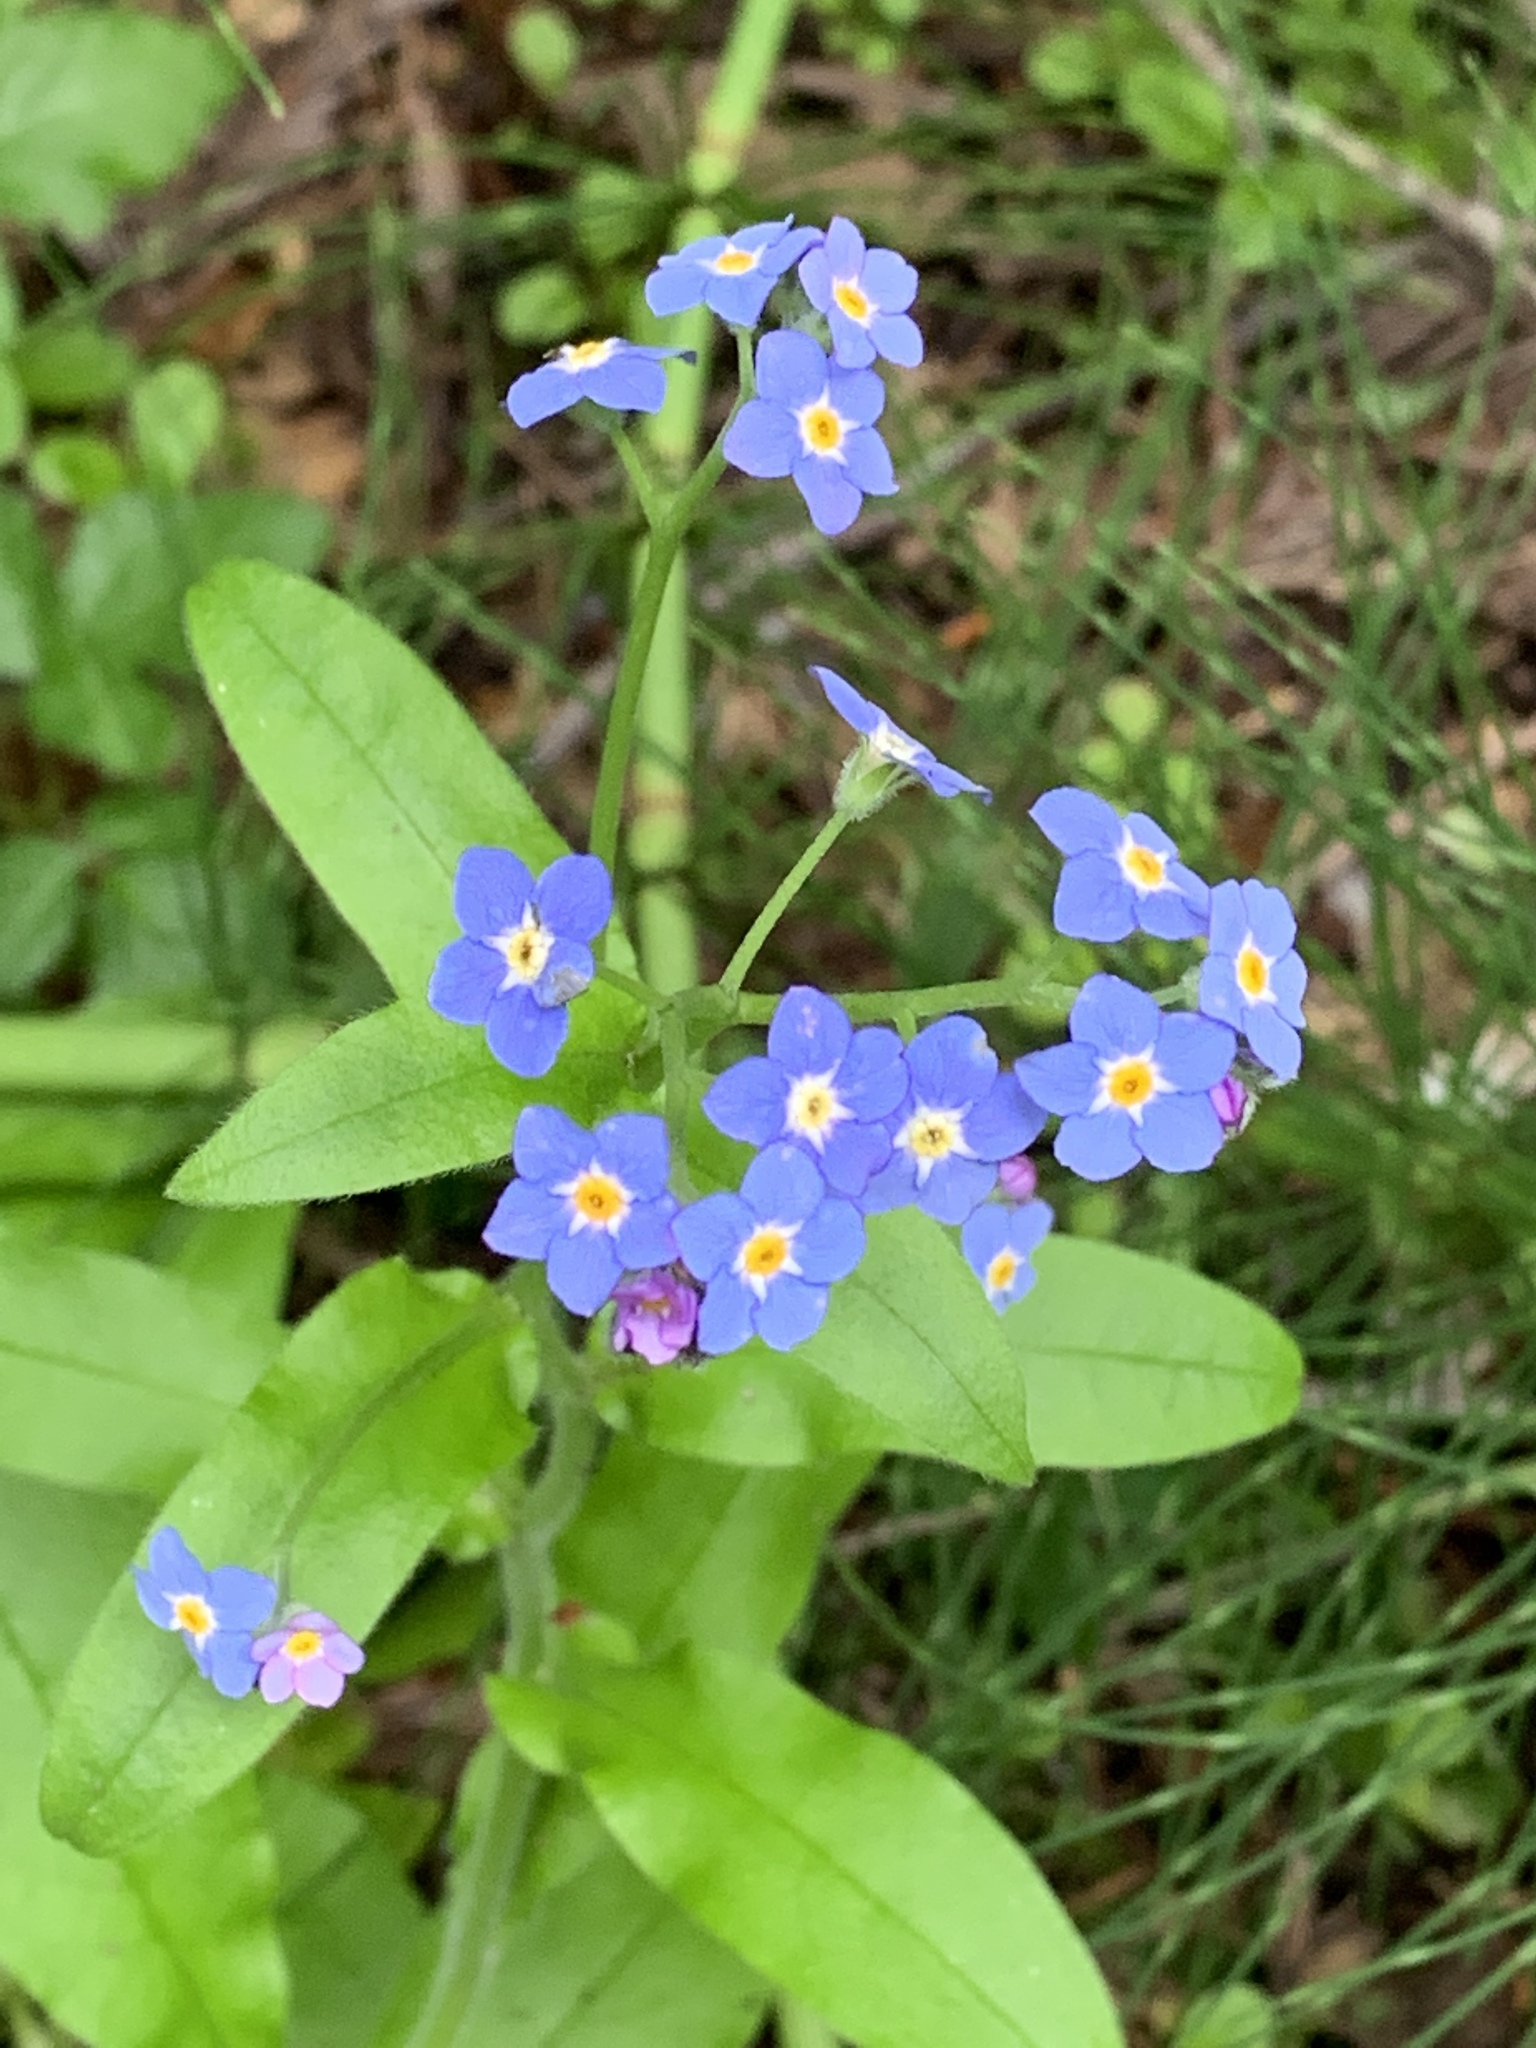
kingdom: Plantae
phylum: Tracheophyta
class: Magnoliopsida
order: Boraginales
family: Boraginaceae
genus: Myosotis
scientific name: Myosotis latifolia
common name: Broadleaf forget-me-not
